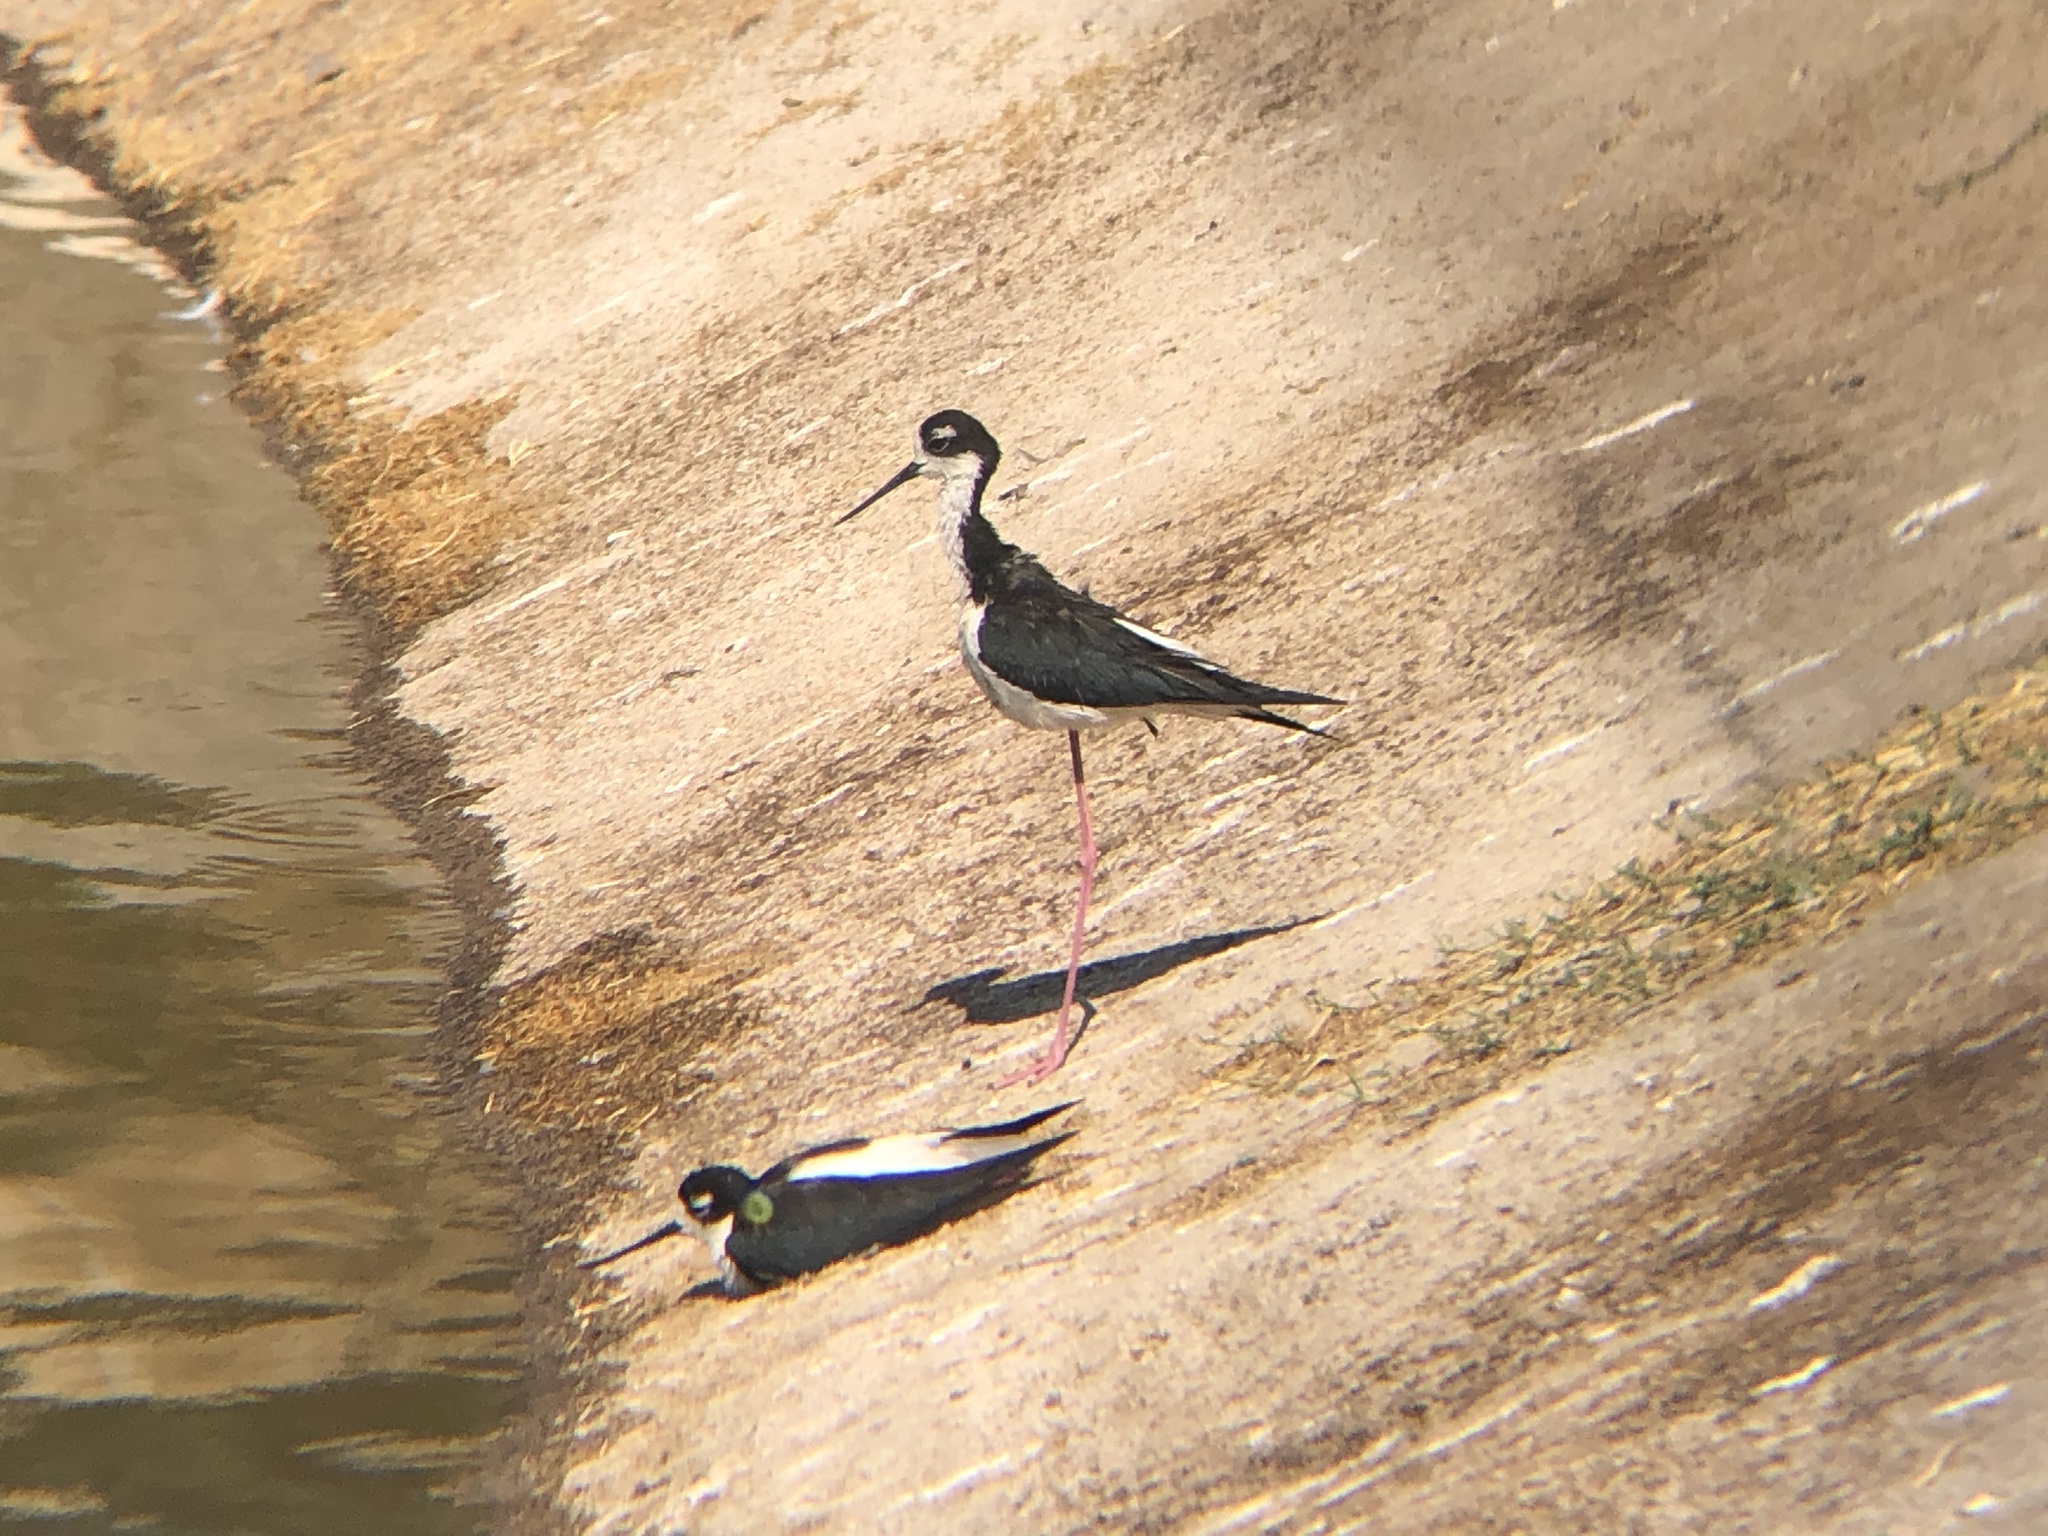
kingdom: Animalia
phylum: Chordata
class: Aves
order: Charadriiformes
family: Recurvirostridae
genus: Himantopus
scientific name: Himantopus mexicanus
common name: Black-necked stilt
